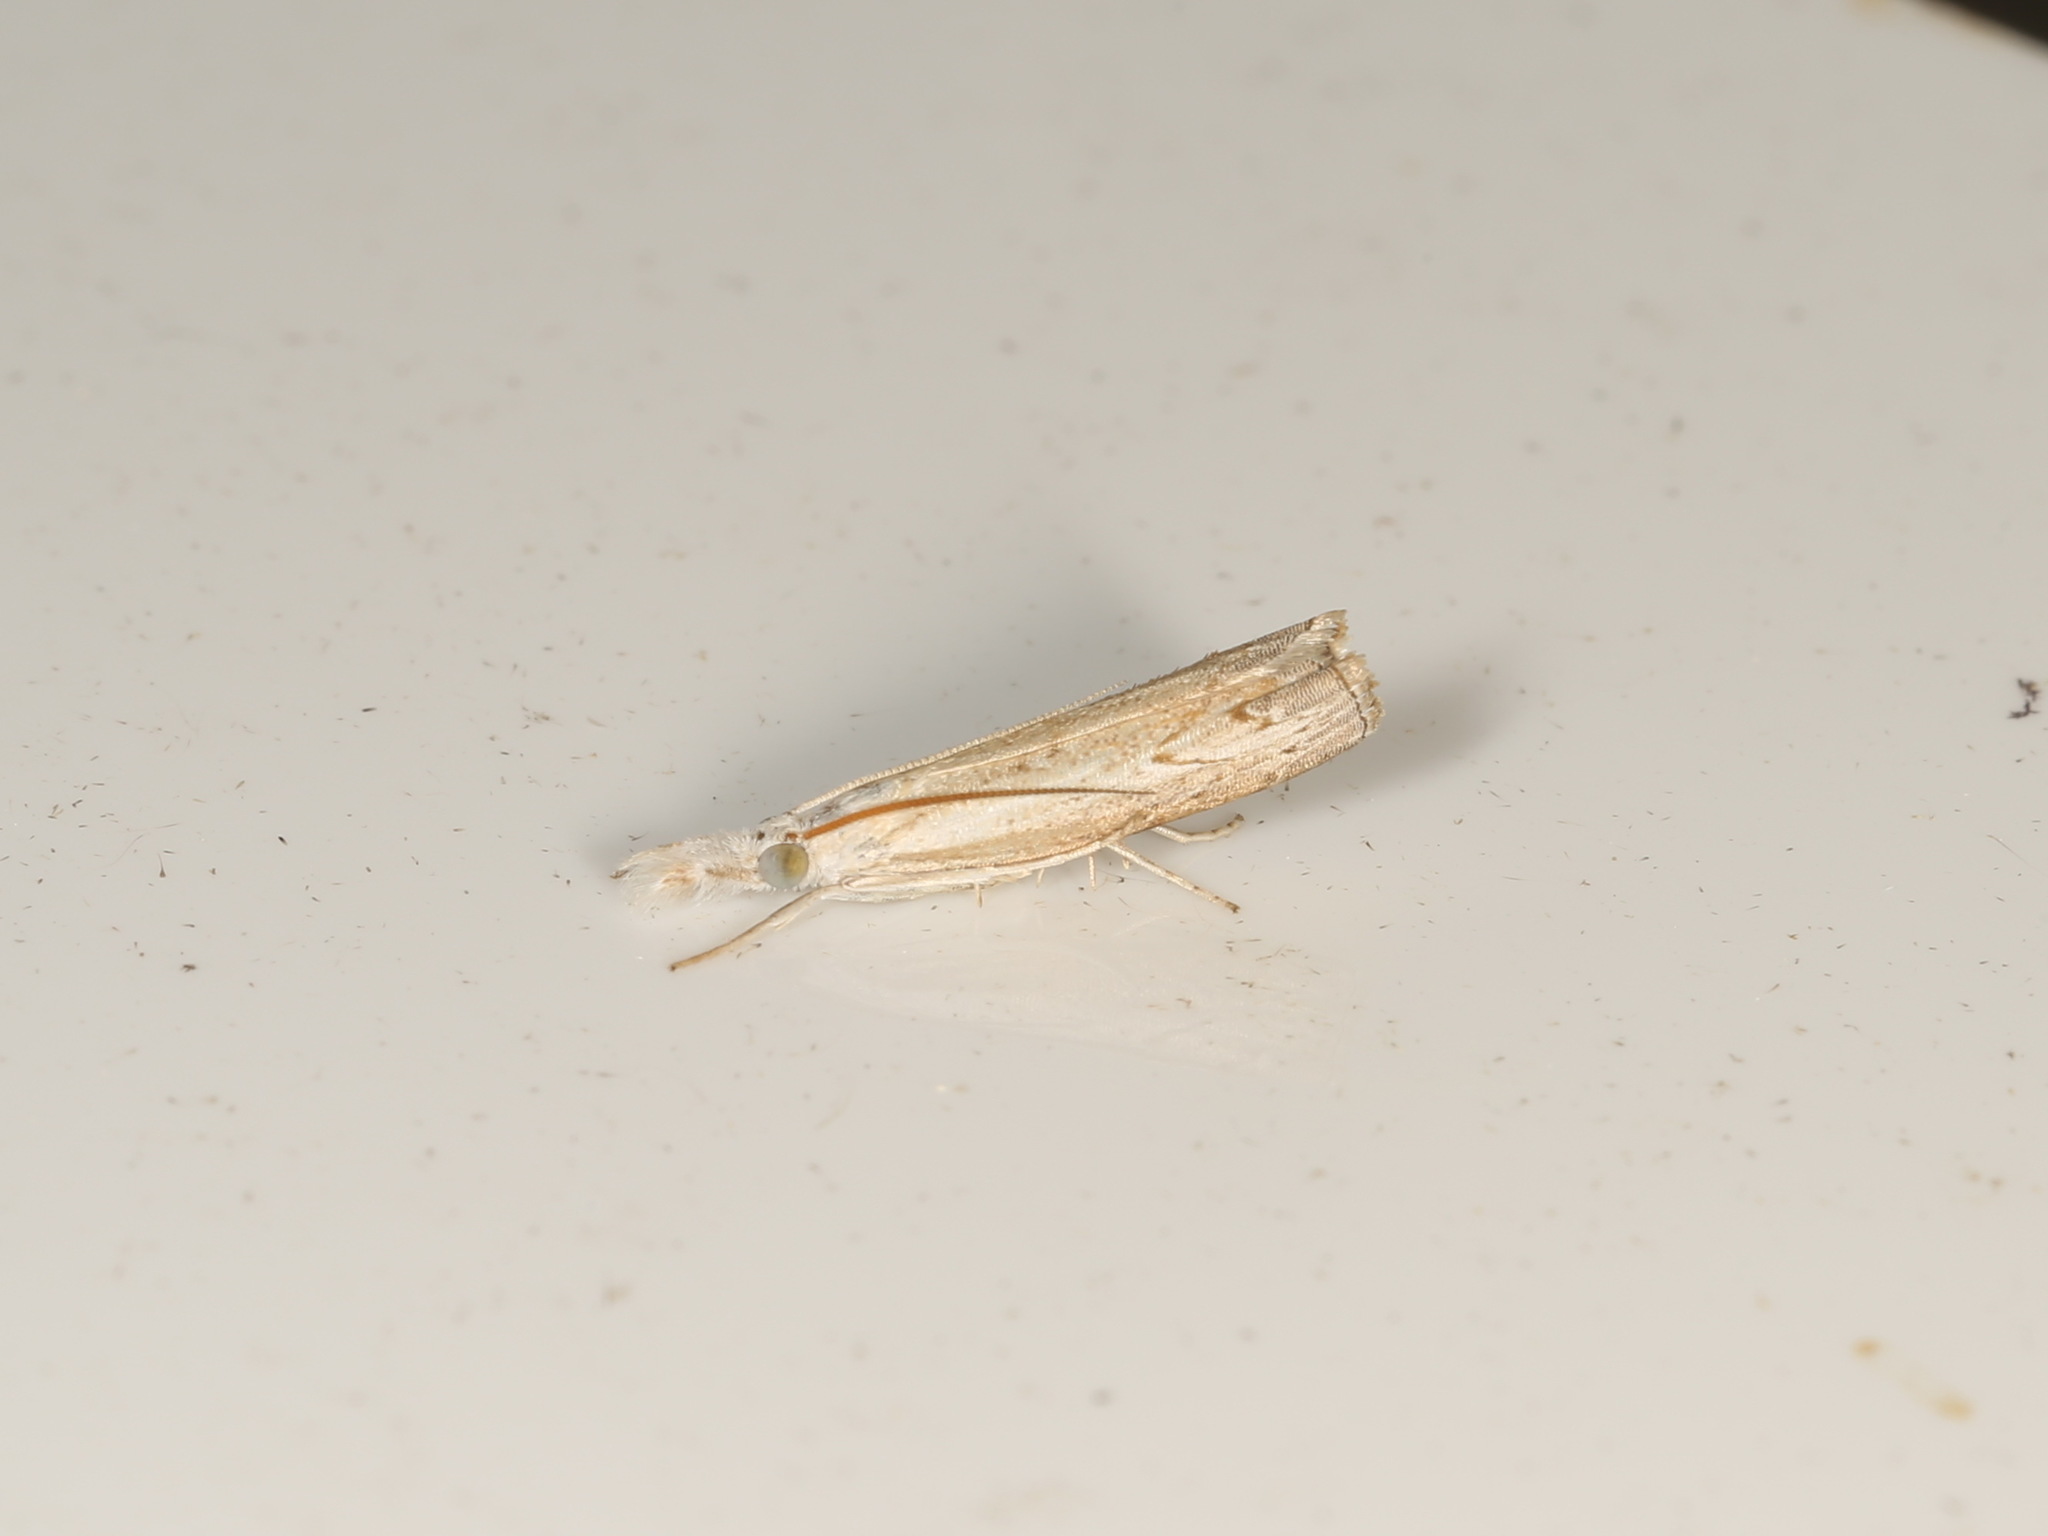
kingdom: Animalia
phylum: Arthropoda
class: Insecta
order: Lepidoptera
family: Crambidae
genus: Culladia
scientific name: Culladia cuneiferellus
